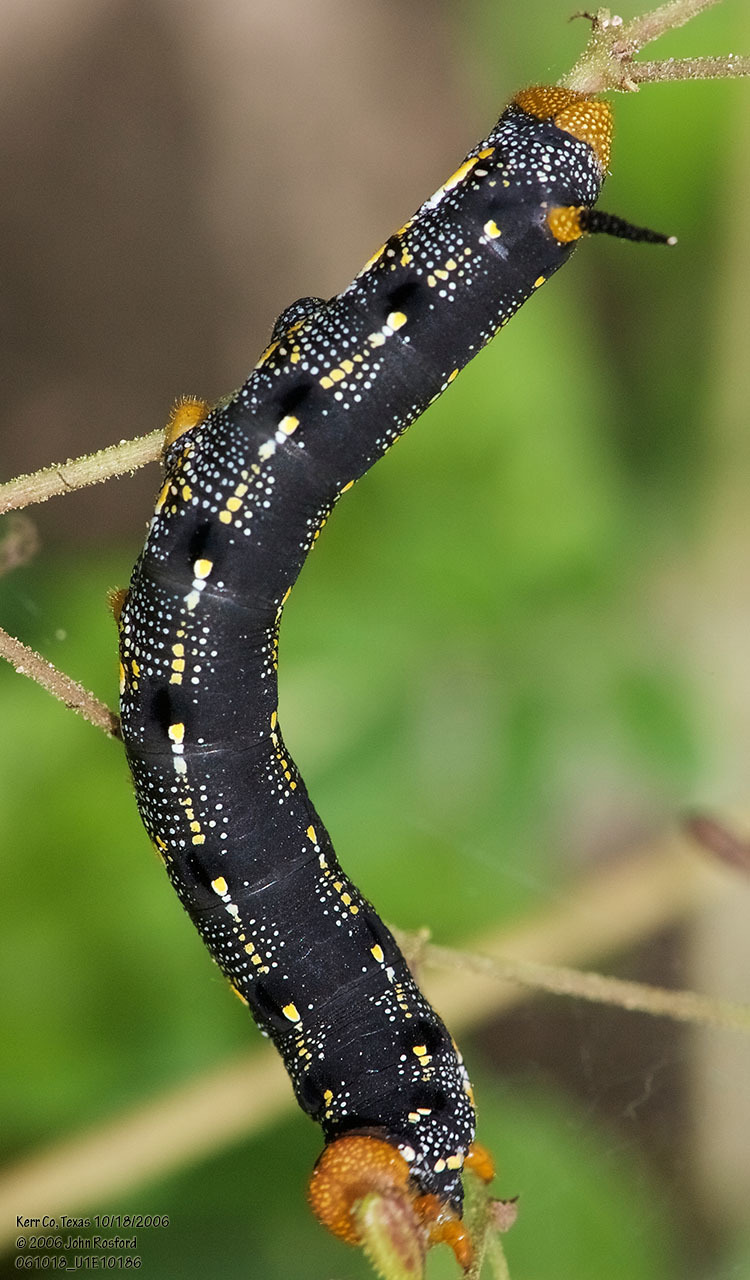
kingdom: Animalia
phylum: Arthropoda
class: Insecta
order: Lepidoptera
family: Sphingidae
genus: Hyles
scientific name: Hyles lineata
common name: White-lined sphinx
